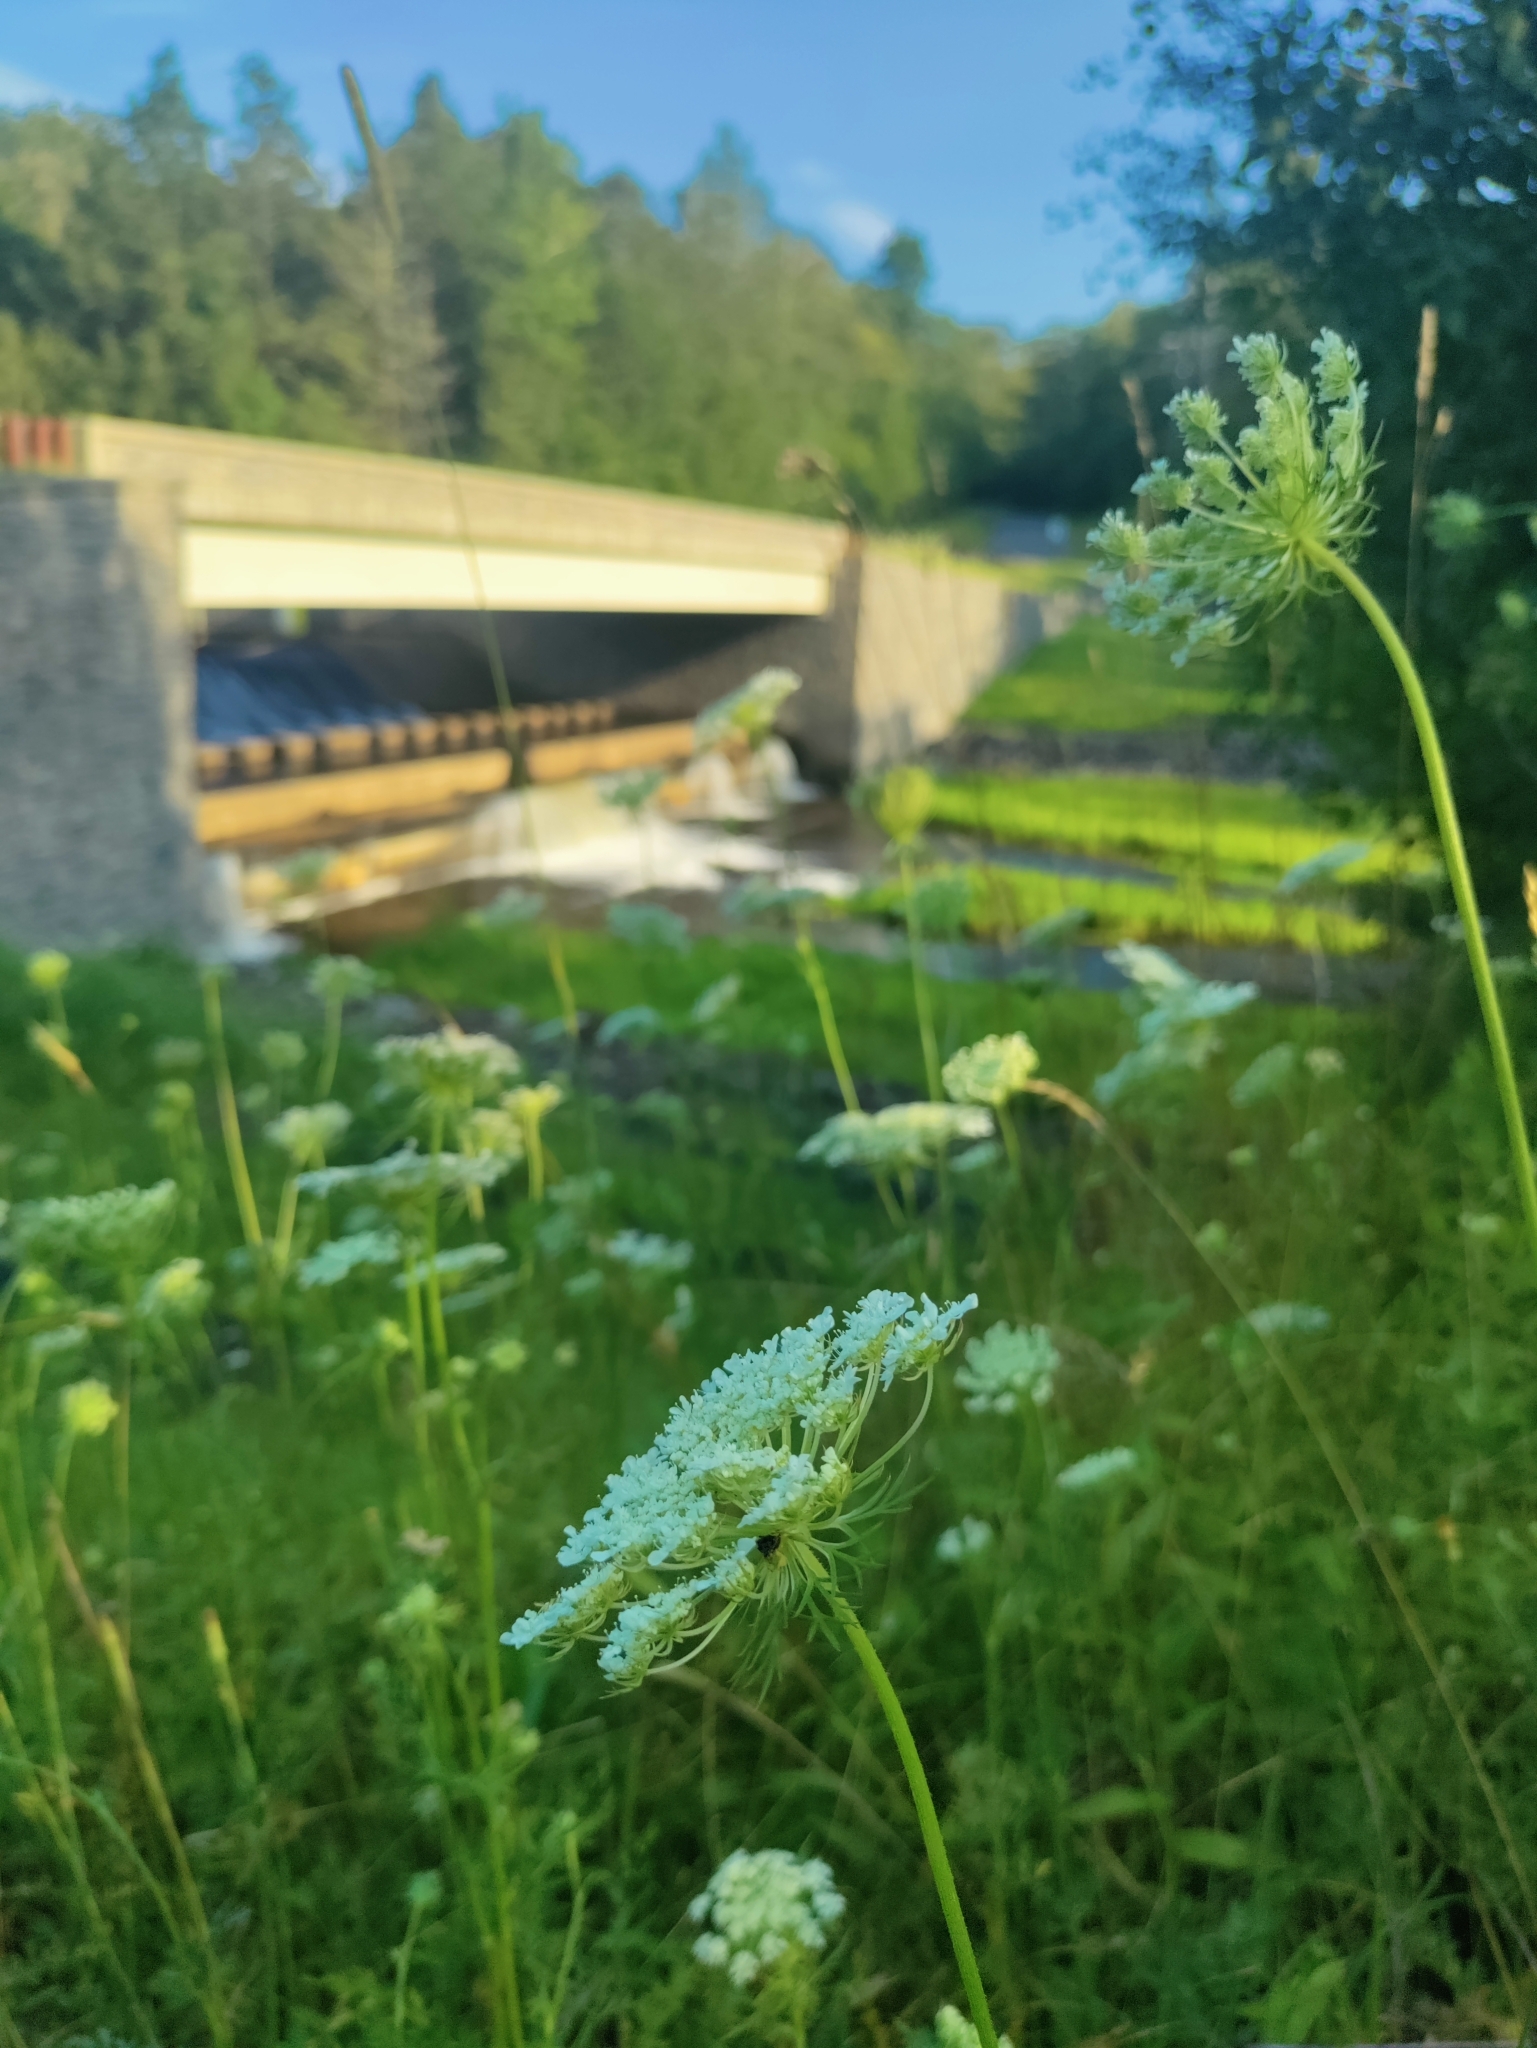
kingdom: Plantae
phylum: Tracheophyta
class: Magnoliopsida
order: Apiales
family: Apiaceae
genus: Daucus
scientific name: Daucus carota
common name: Wild carrot
